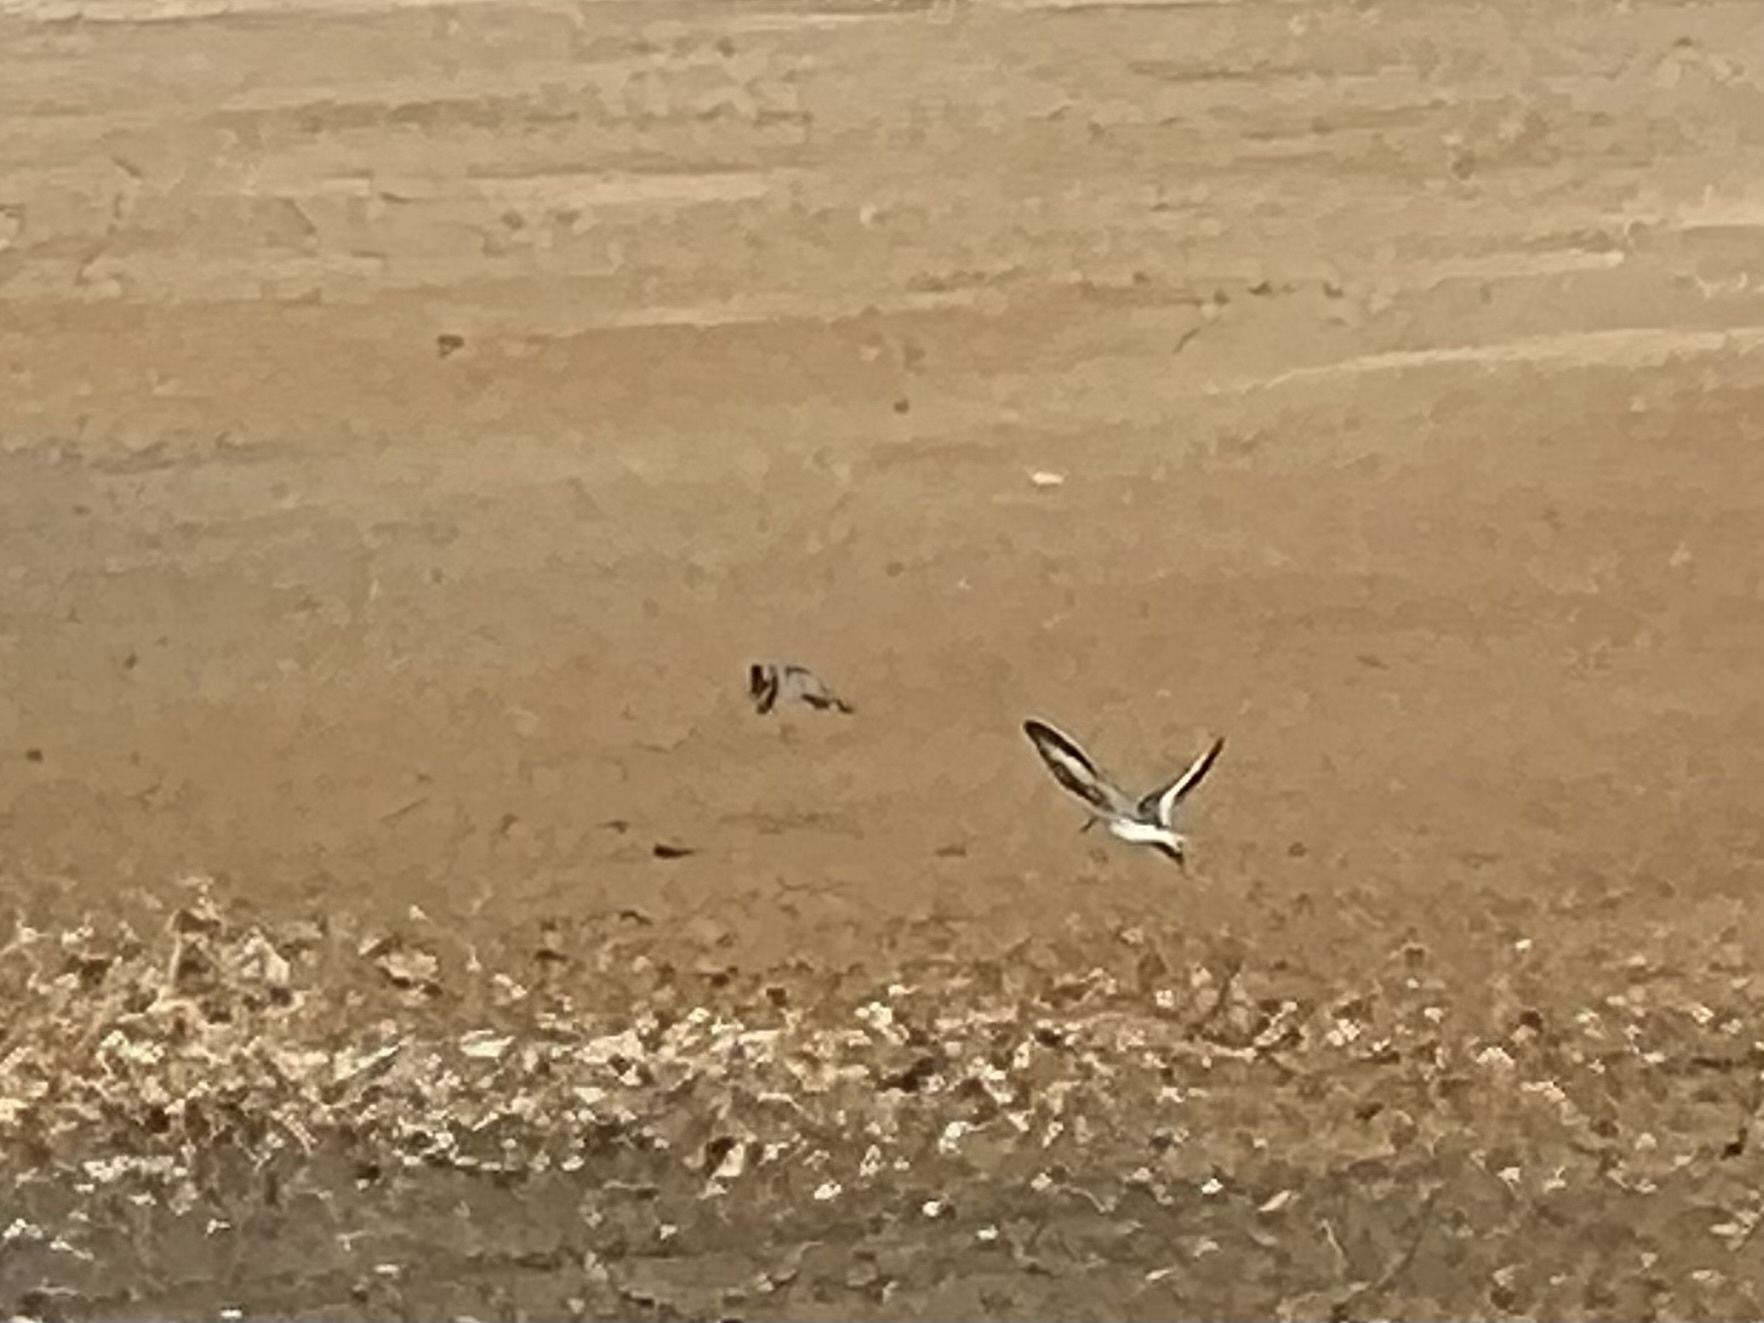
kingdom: Animalia
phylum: Chordata
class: Aves
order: Charadriiformes
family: Scolopacidae
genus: Calidris
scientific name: Calidris alba
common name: Sanderling
